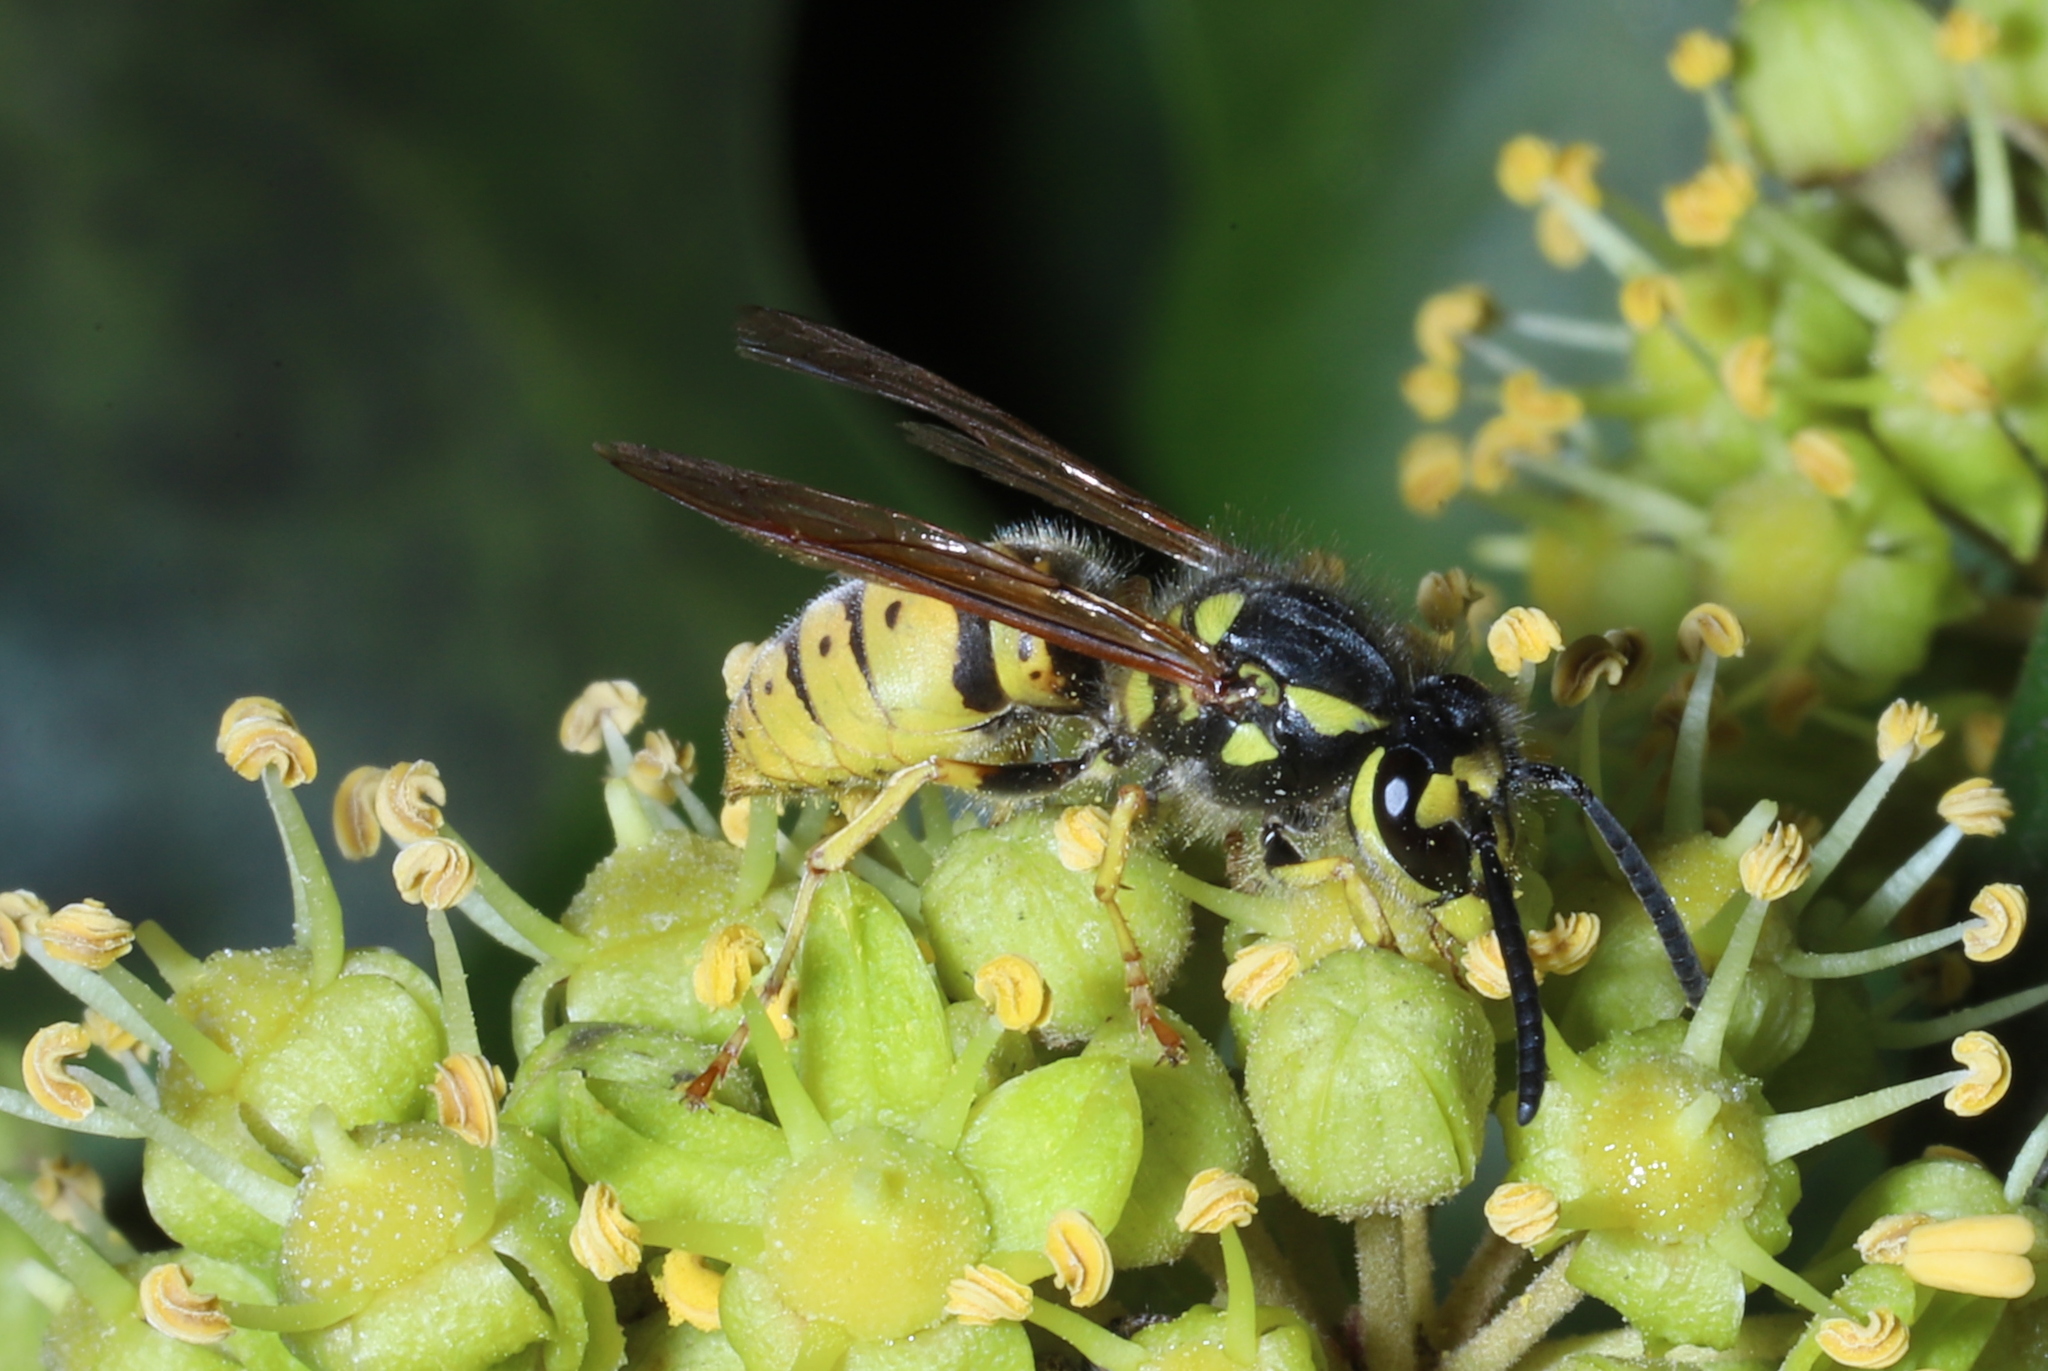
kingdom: Animalia
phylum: Arthropoda
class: Insecta
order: Hymenoptera
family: Vespidae
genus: Vespula
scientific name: Vespula germanica
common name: German wasp
